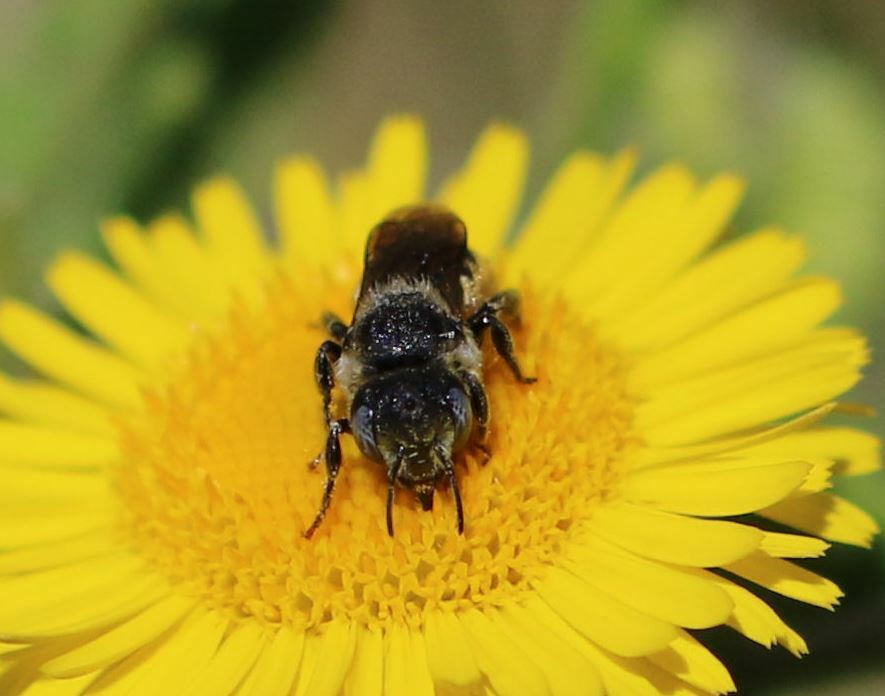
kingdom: Animalia
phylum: Arthropoda
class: Insecta
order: Hymenoptera
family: Megachilidae
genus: Osmia
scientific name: Osmia spinulosa
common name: Spined mason bee
